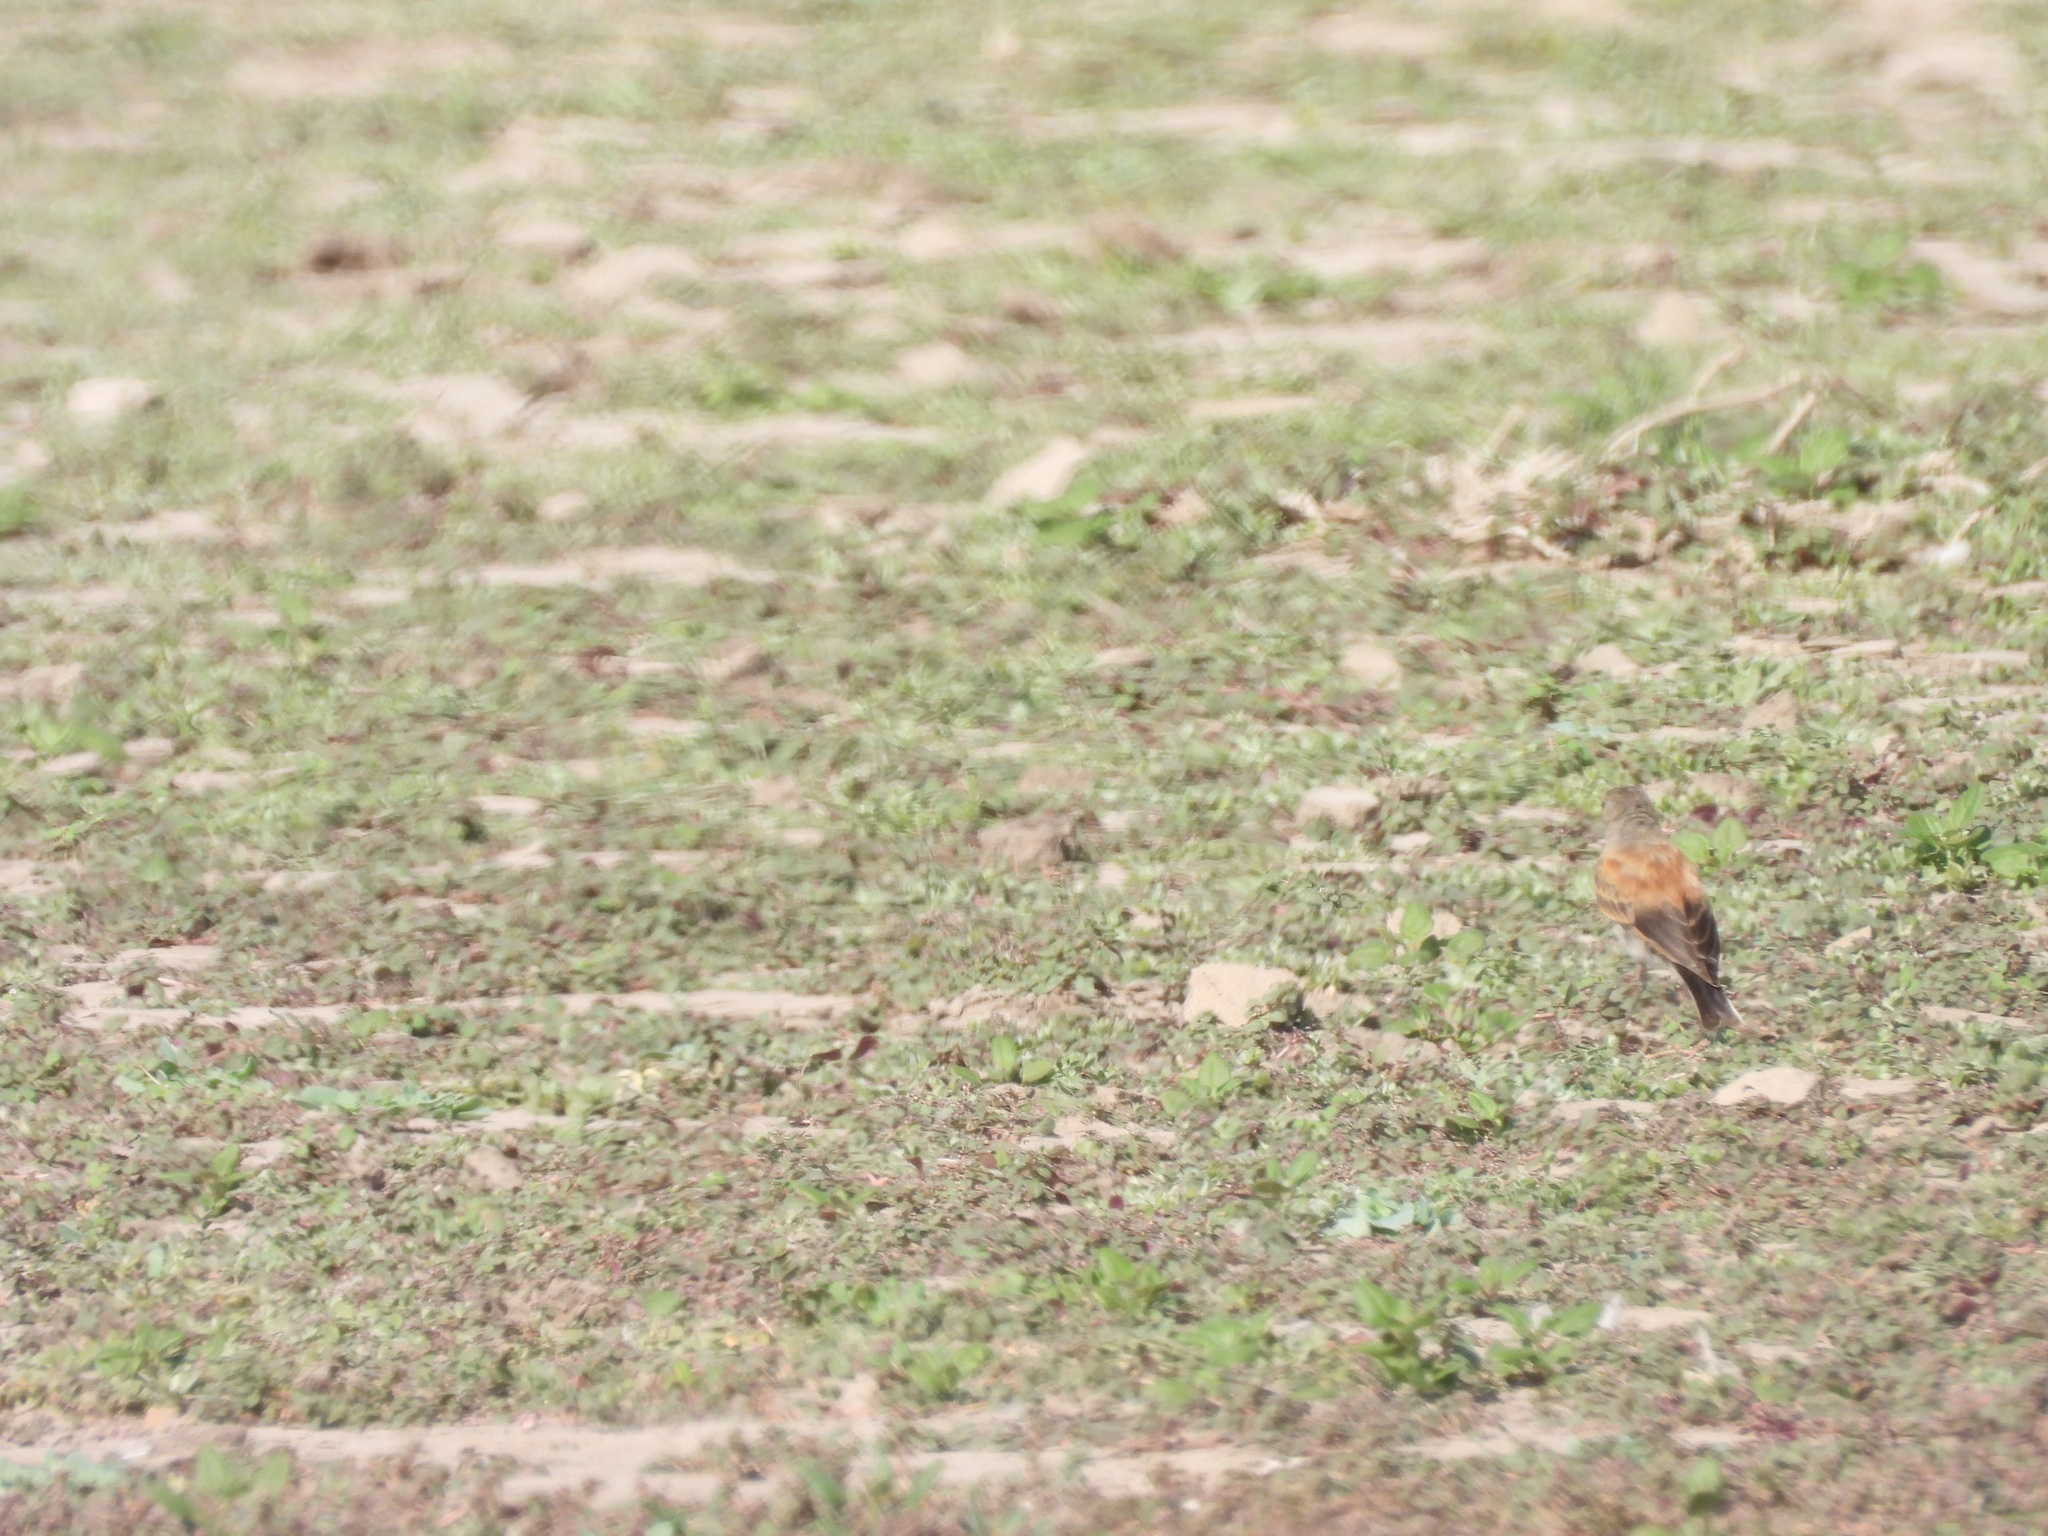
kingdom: Animalia
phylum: Chordata
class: Aves
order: Passeriformes
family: Tyrannidae
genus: Lessonia
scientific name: Lessonia rufa
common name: Austral negrito
